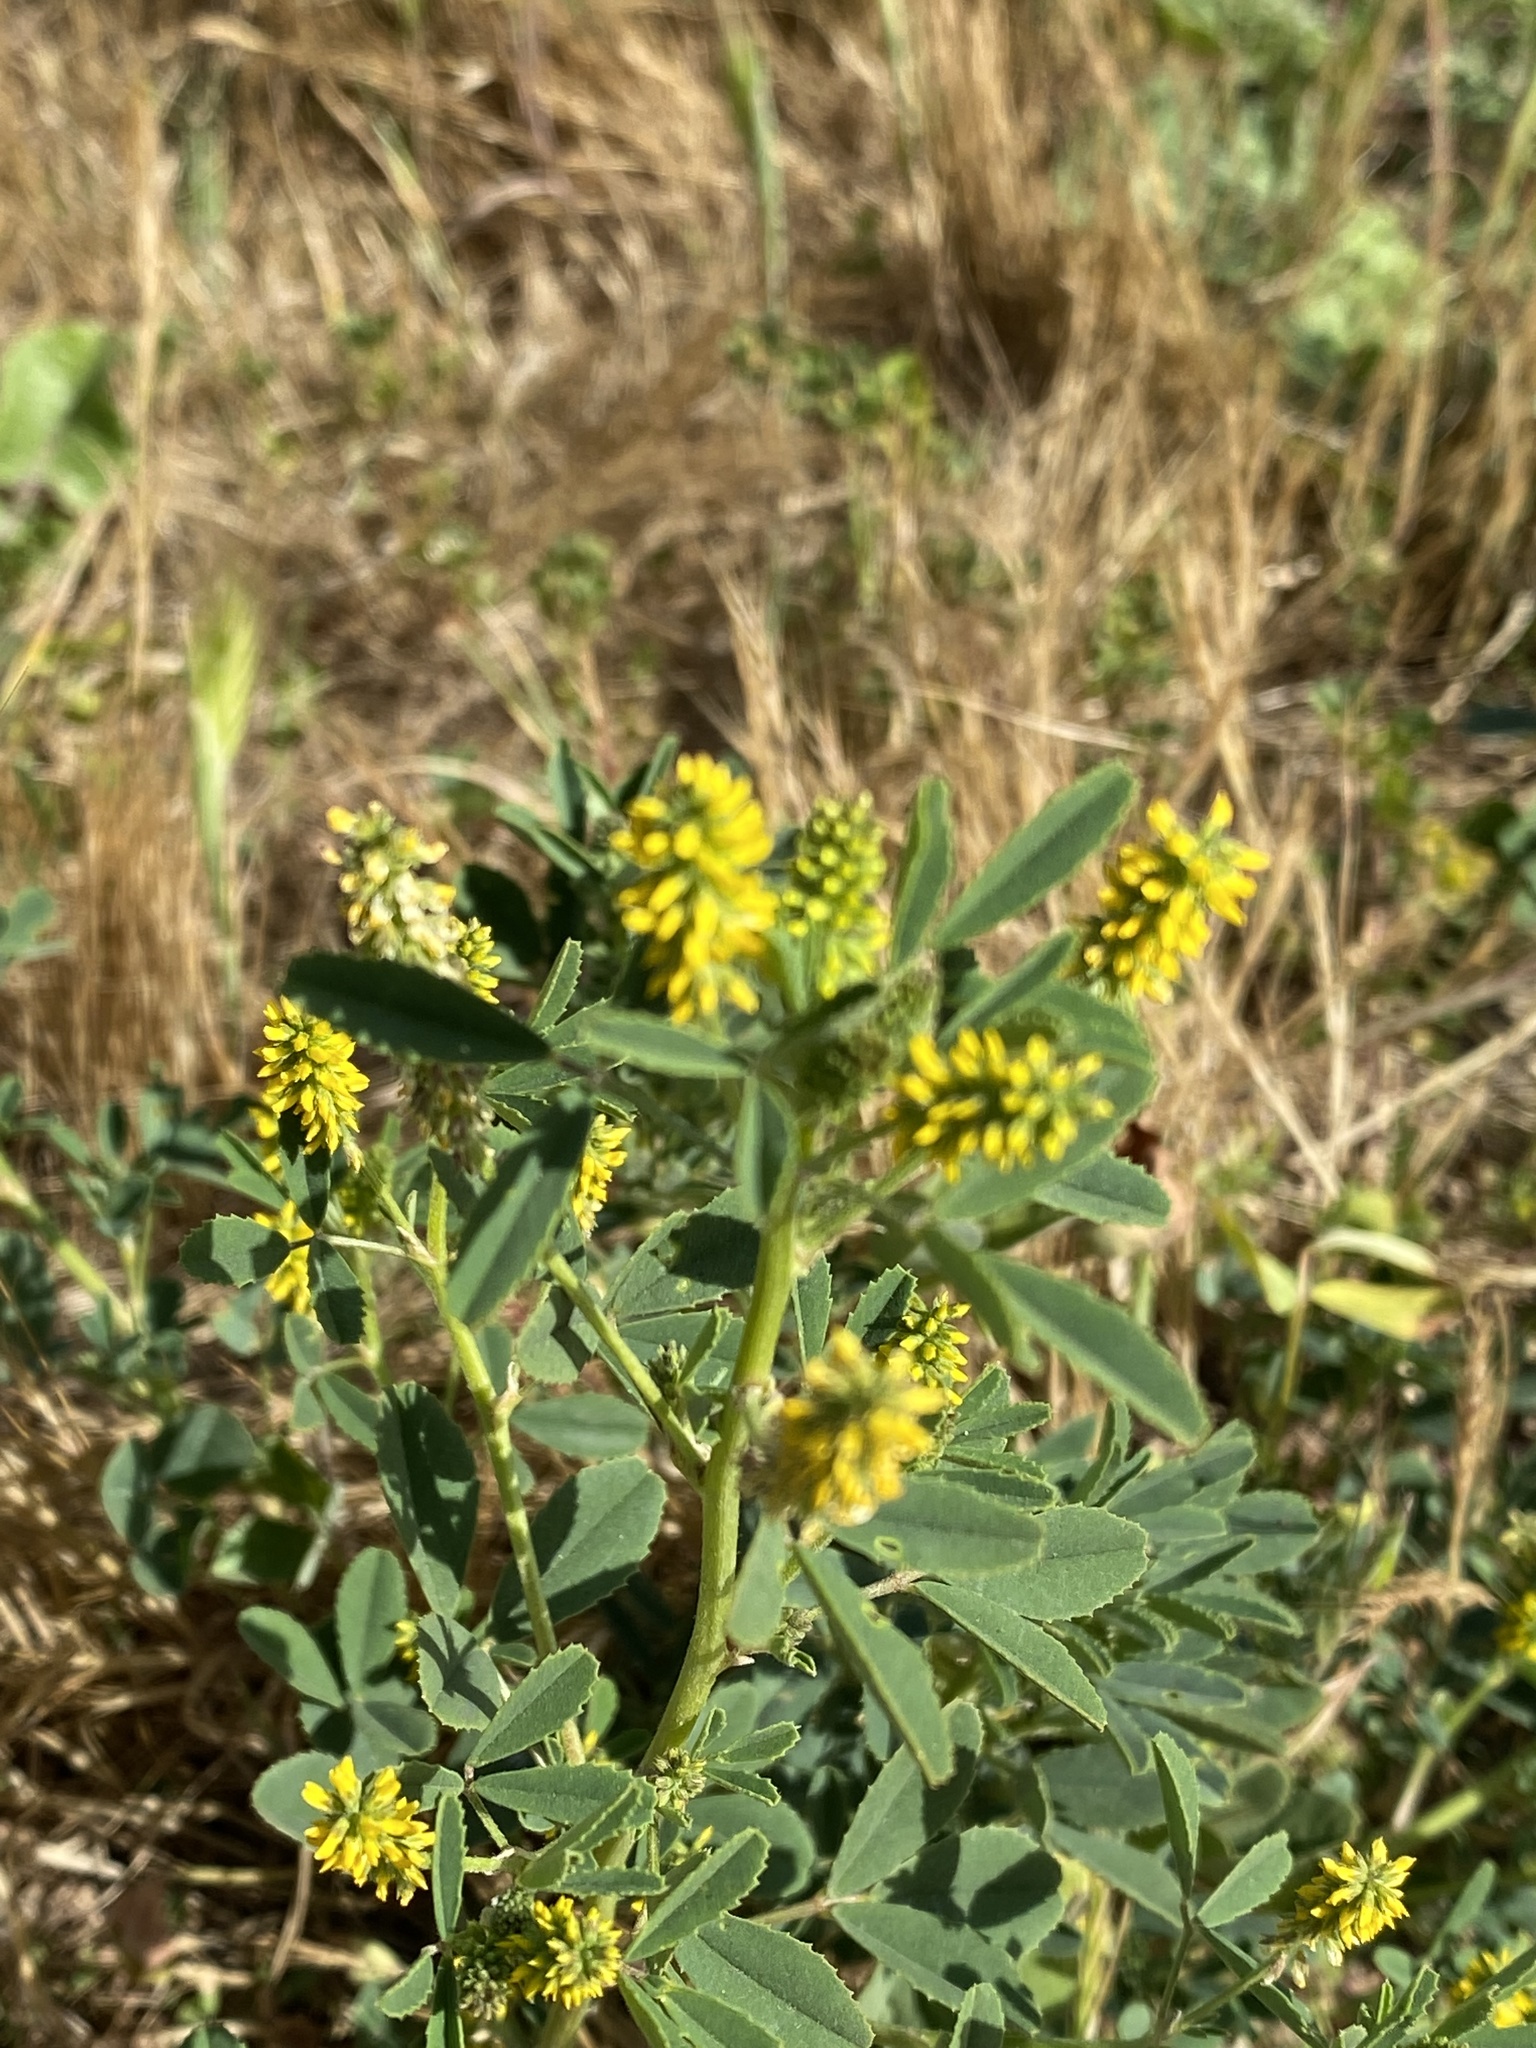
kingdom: Plantae
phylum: Tracheophyta
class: Magnoliopsida
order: Fabales
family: Fabaceae
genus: Melilotus
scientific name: Melilotus indicus
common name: Small melilot
